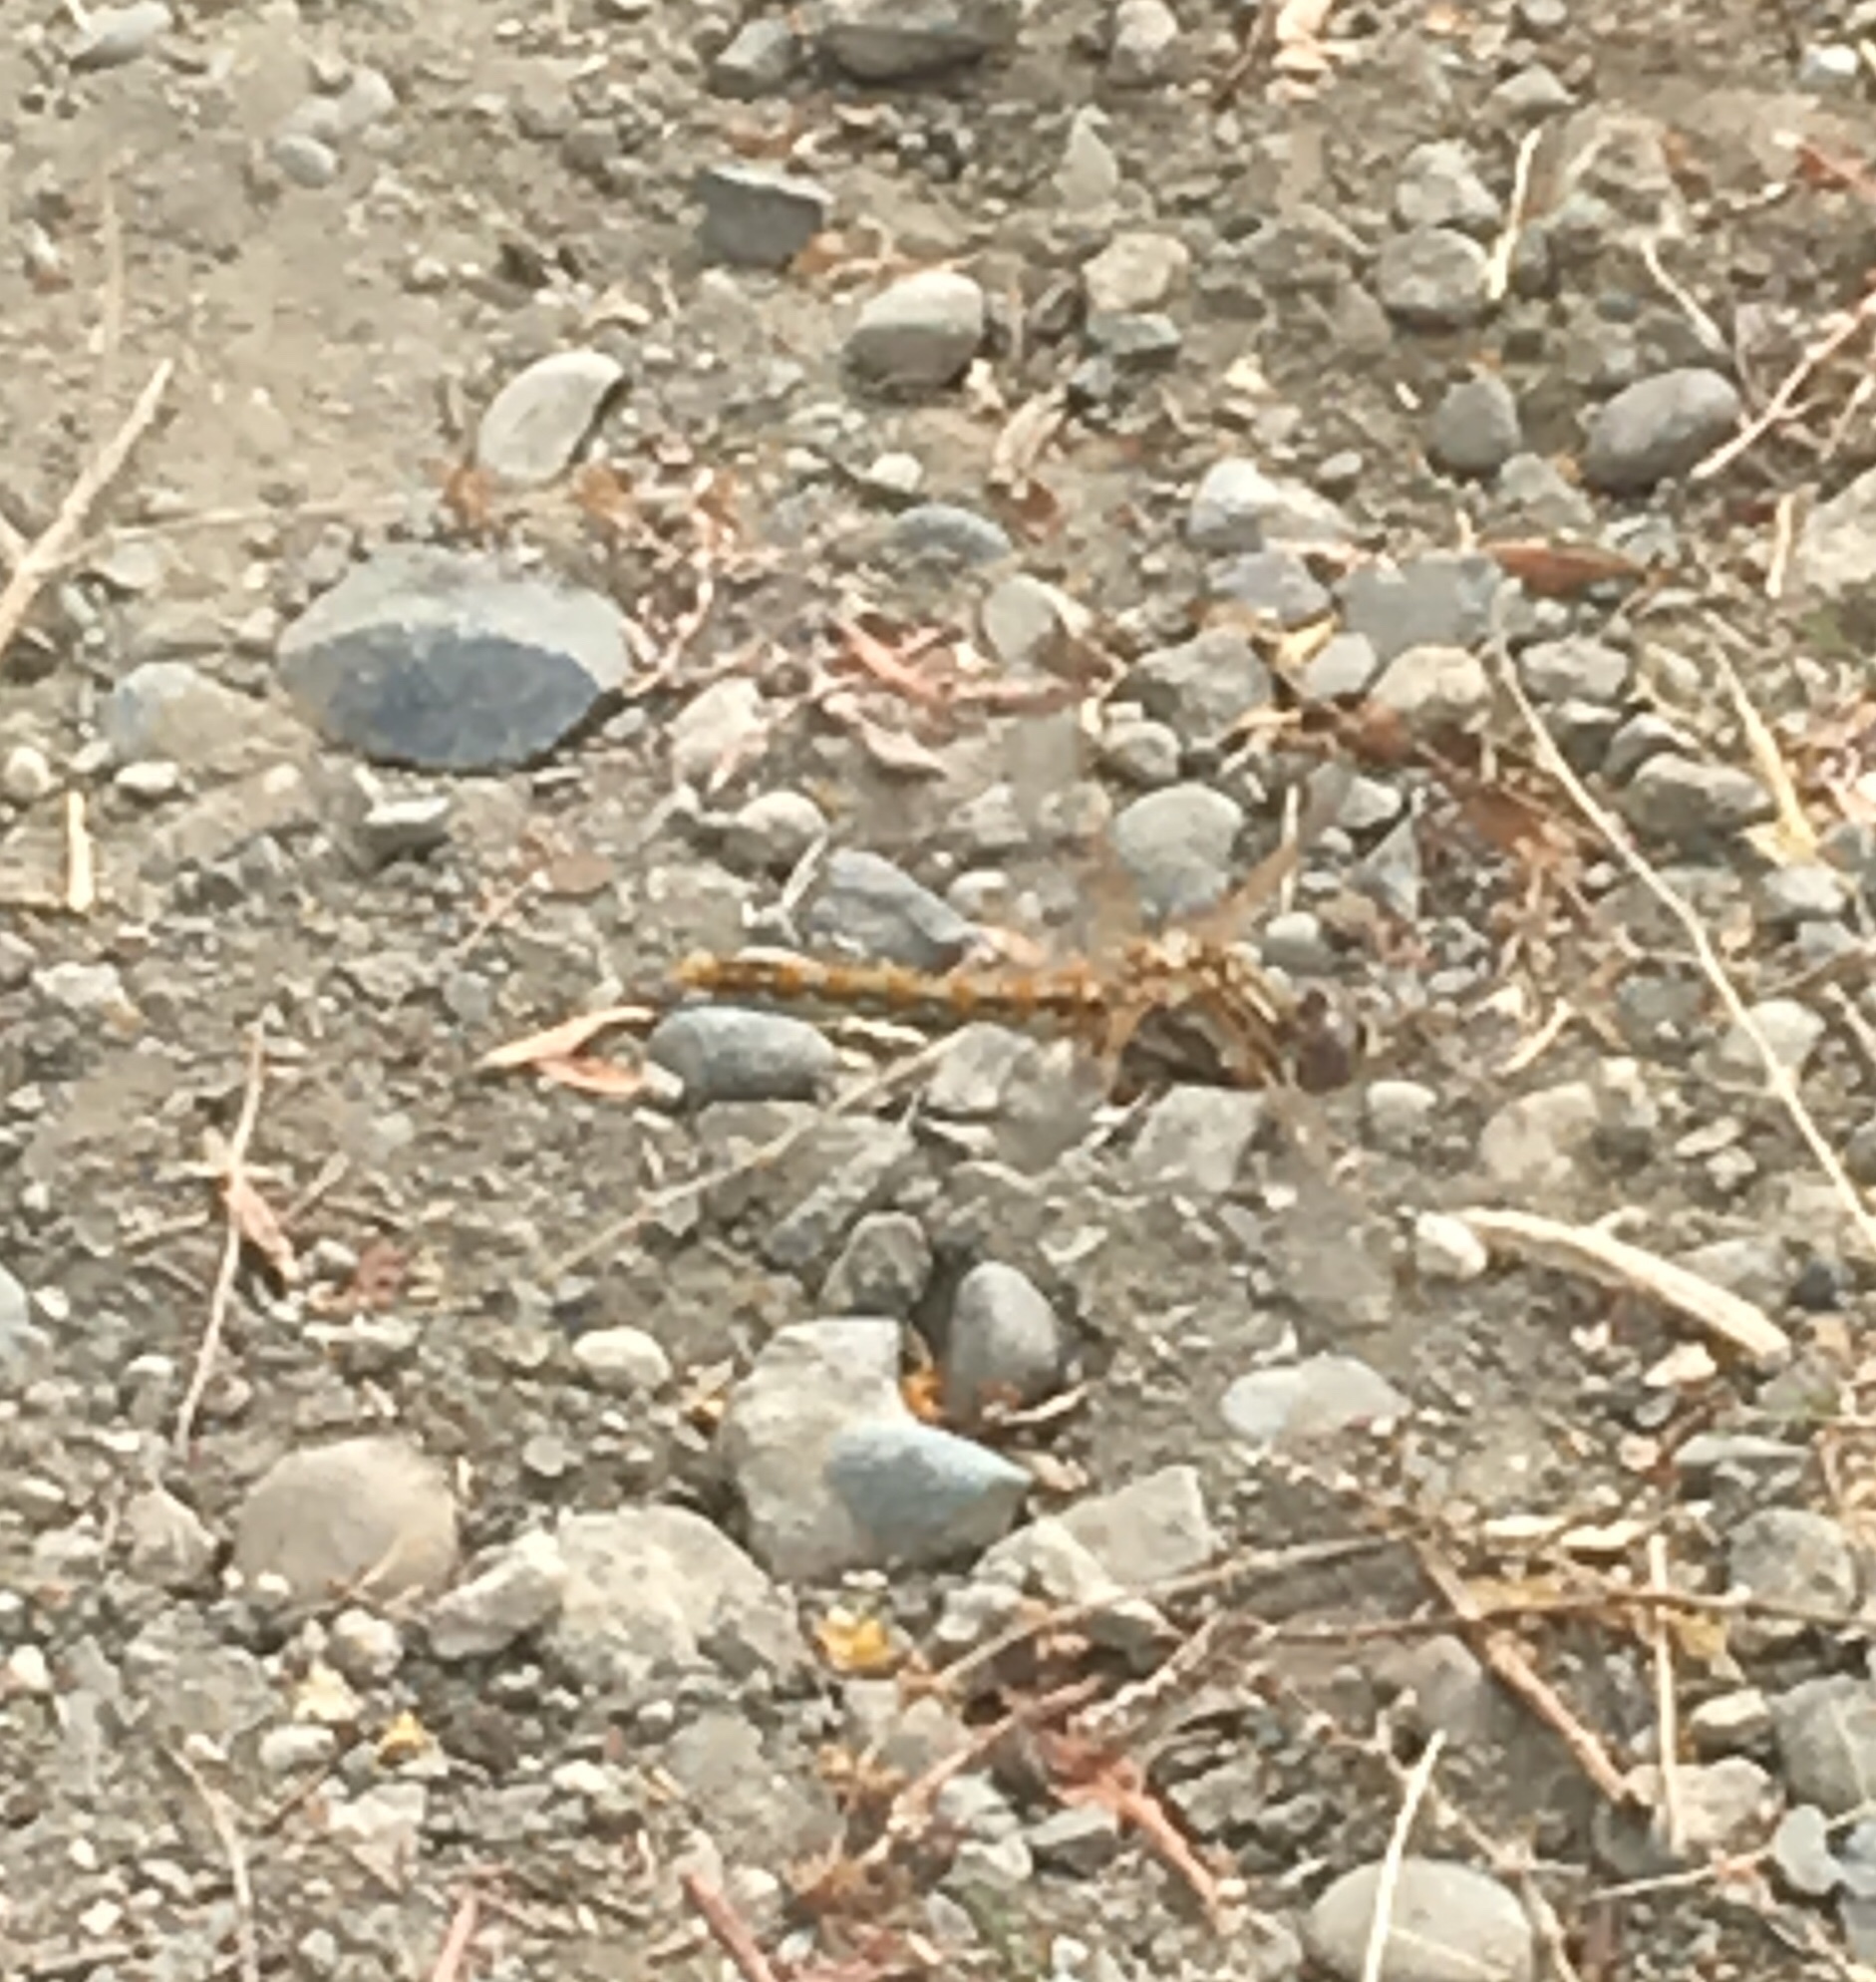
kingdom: Animalia
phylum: Arthropoda
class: Insecta
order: Odonata
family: Libellulidae
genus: Sympetrum
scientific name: Sympetrum corruptum
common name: Variegated meadowhawk
